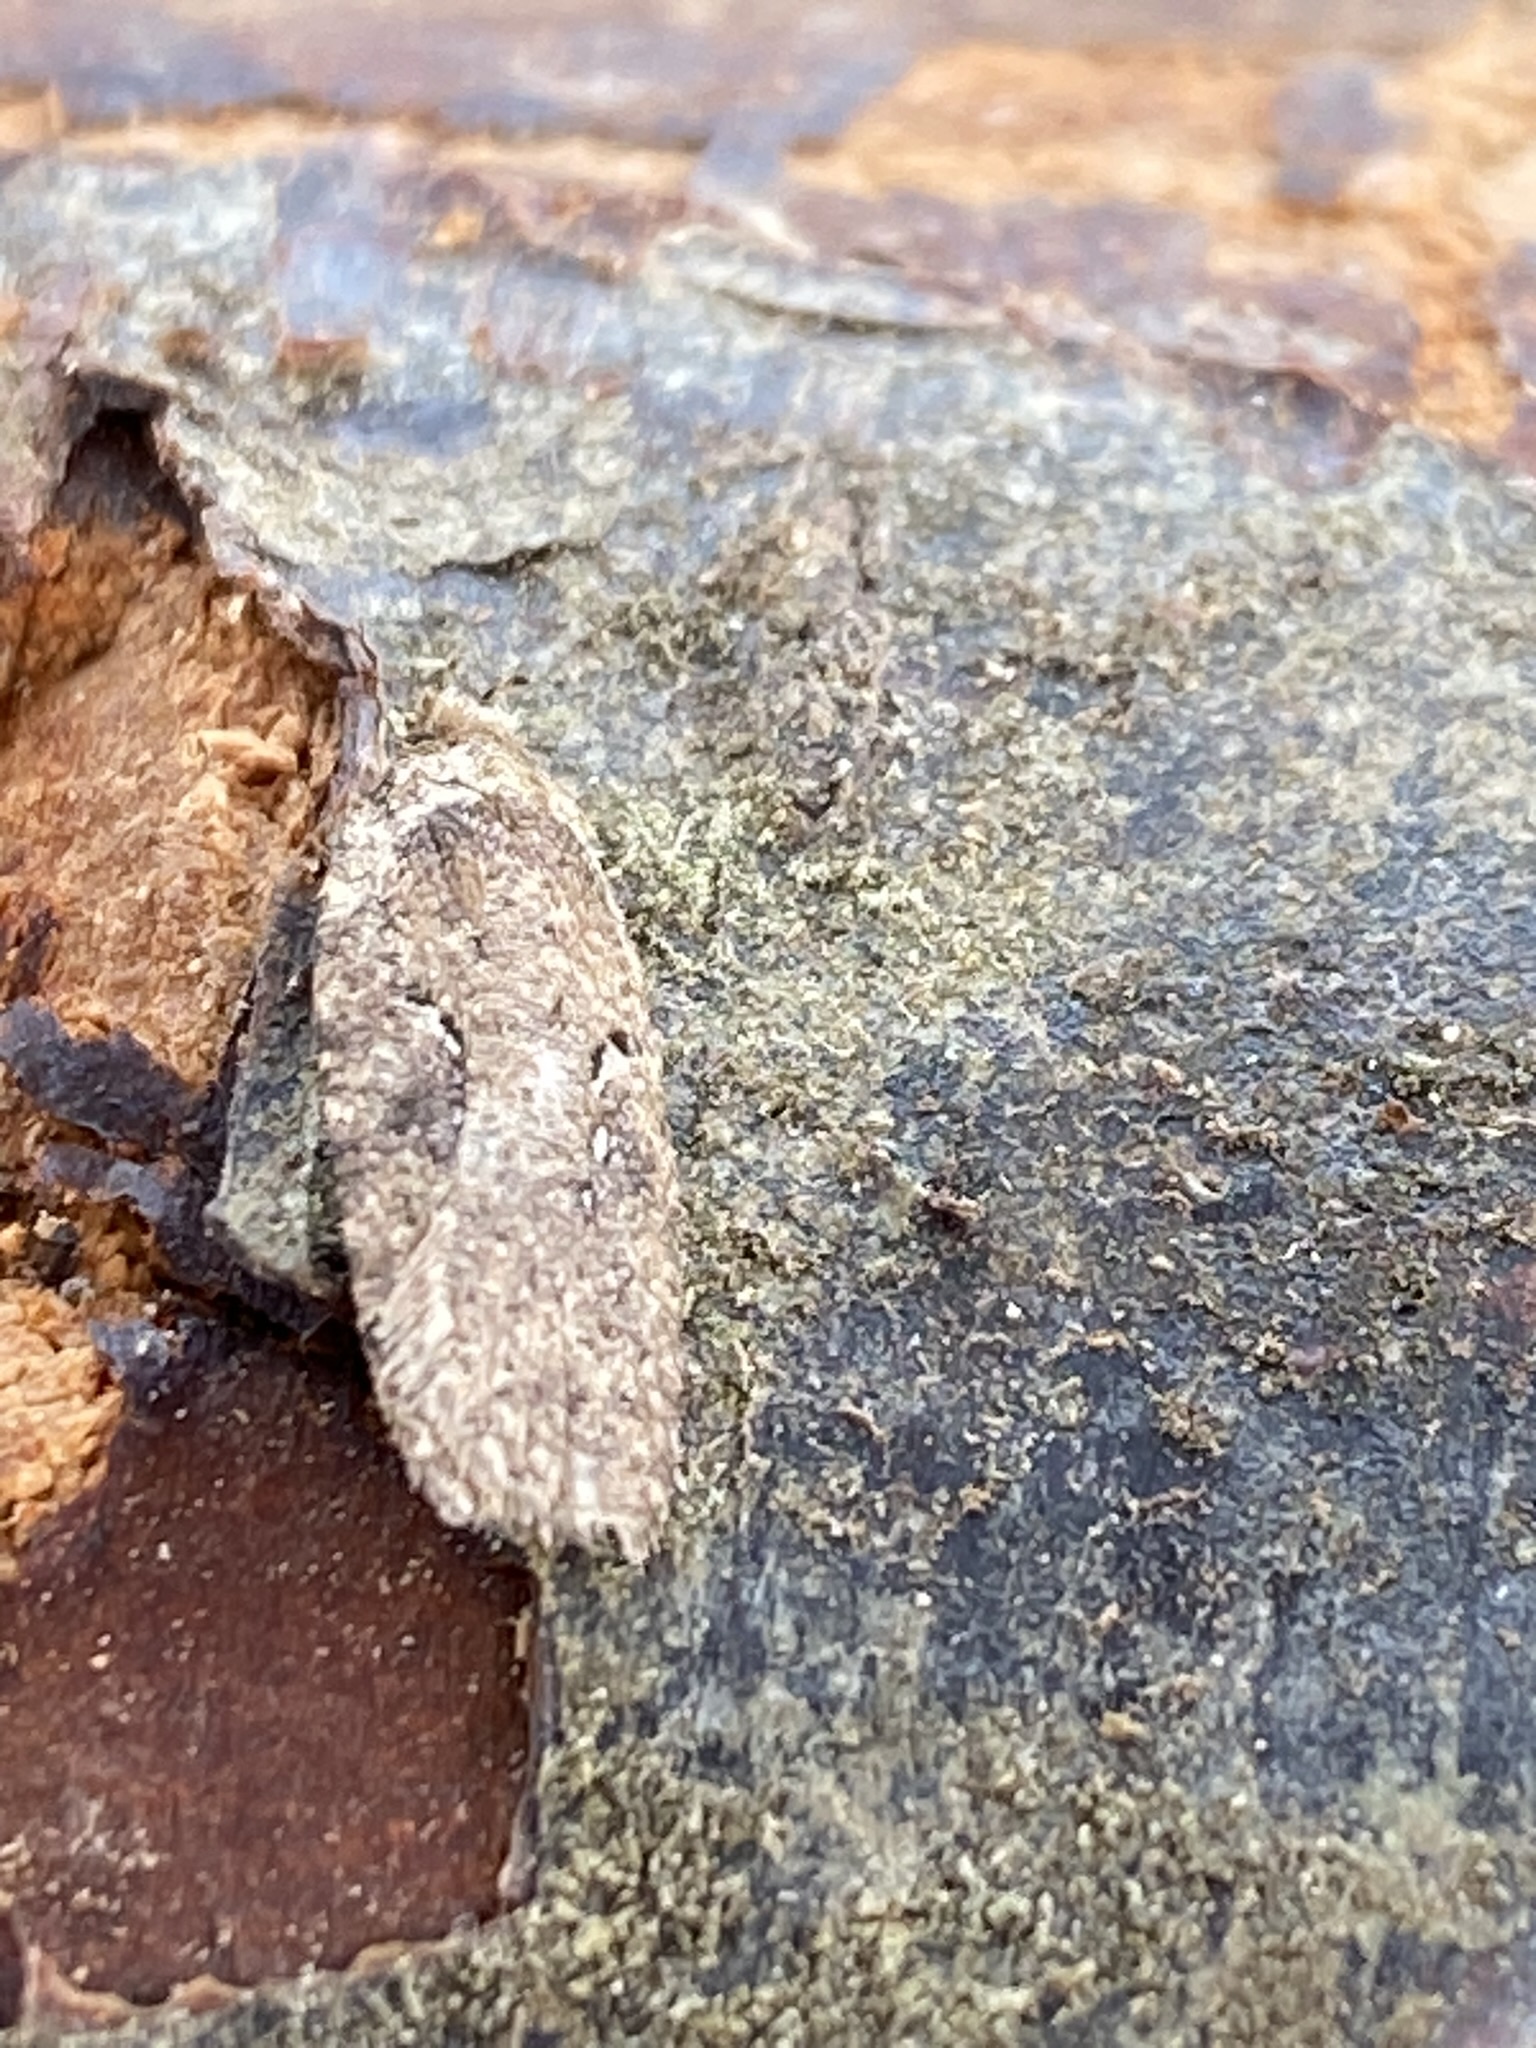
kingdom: Animalia
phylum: Arthropoda
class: Insecta
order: Lepidoptera
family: Depressariidae
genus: Agonopterix
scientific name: Agonopterix
